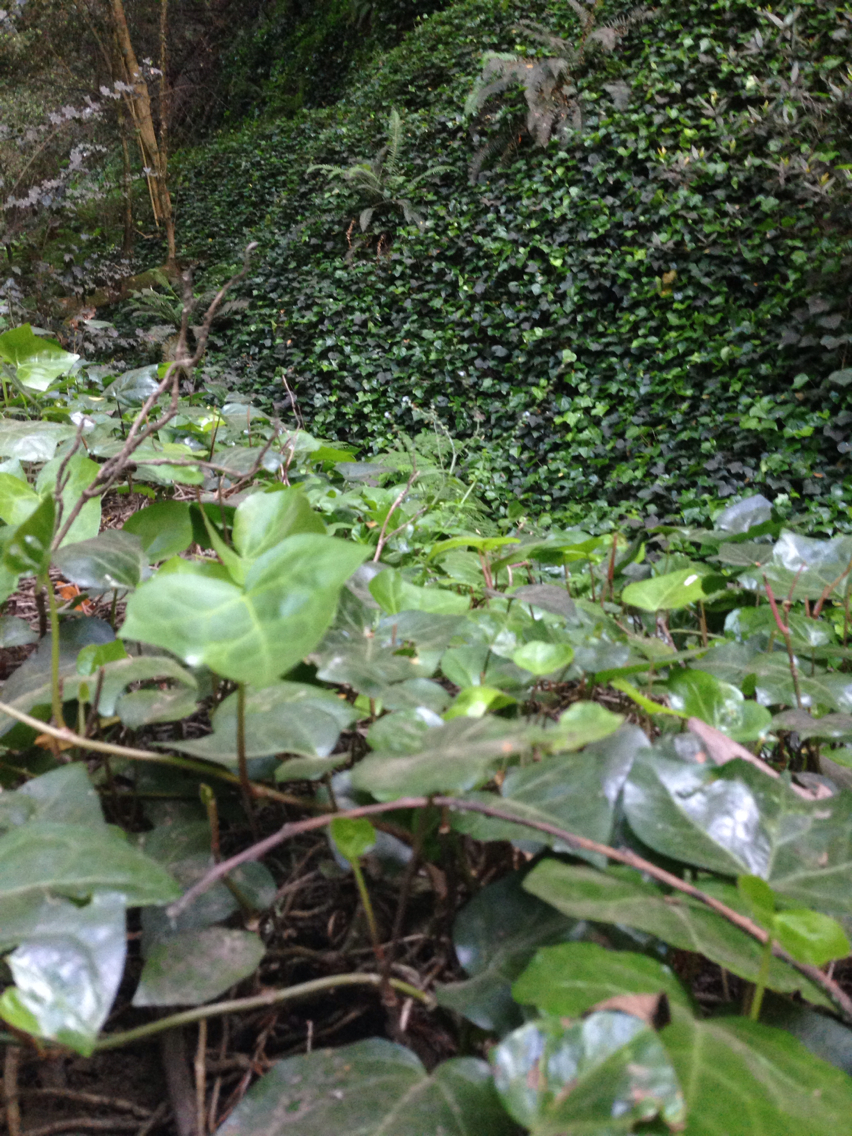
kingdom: Plantae
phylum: Tracheophyta
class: Magnoliopsida
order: Apiales
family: Araliaceae
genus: Hedera
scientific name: Hedera helix
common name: Ivy
